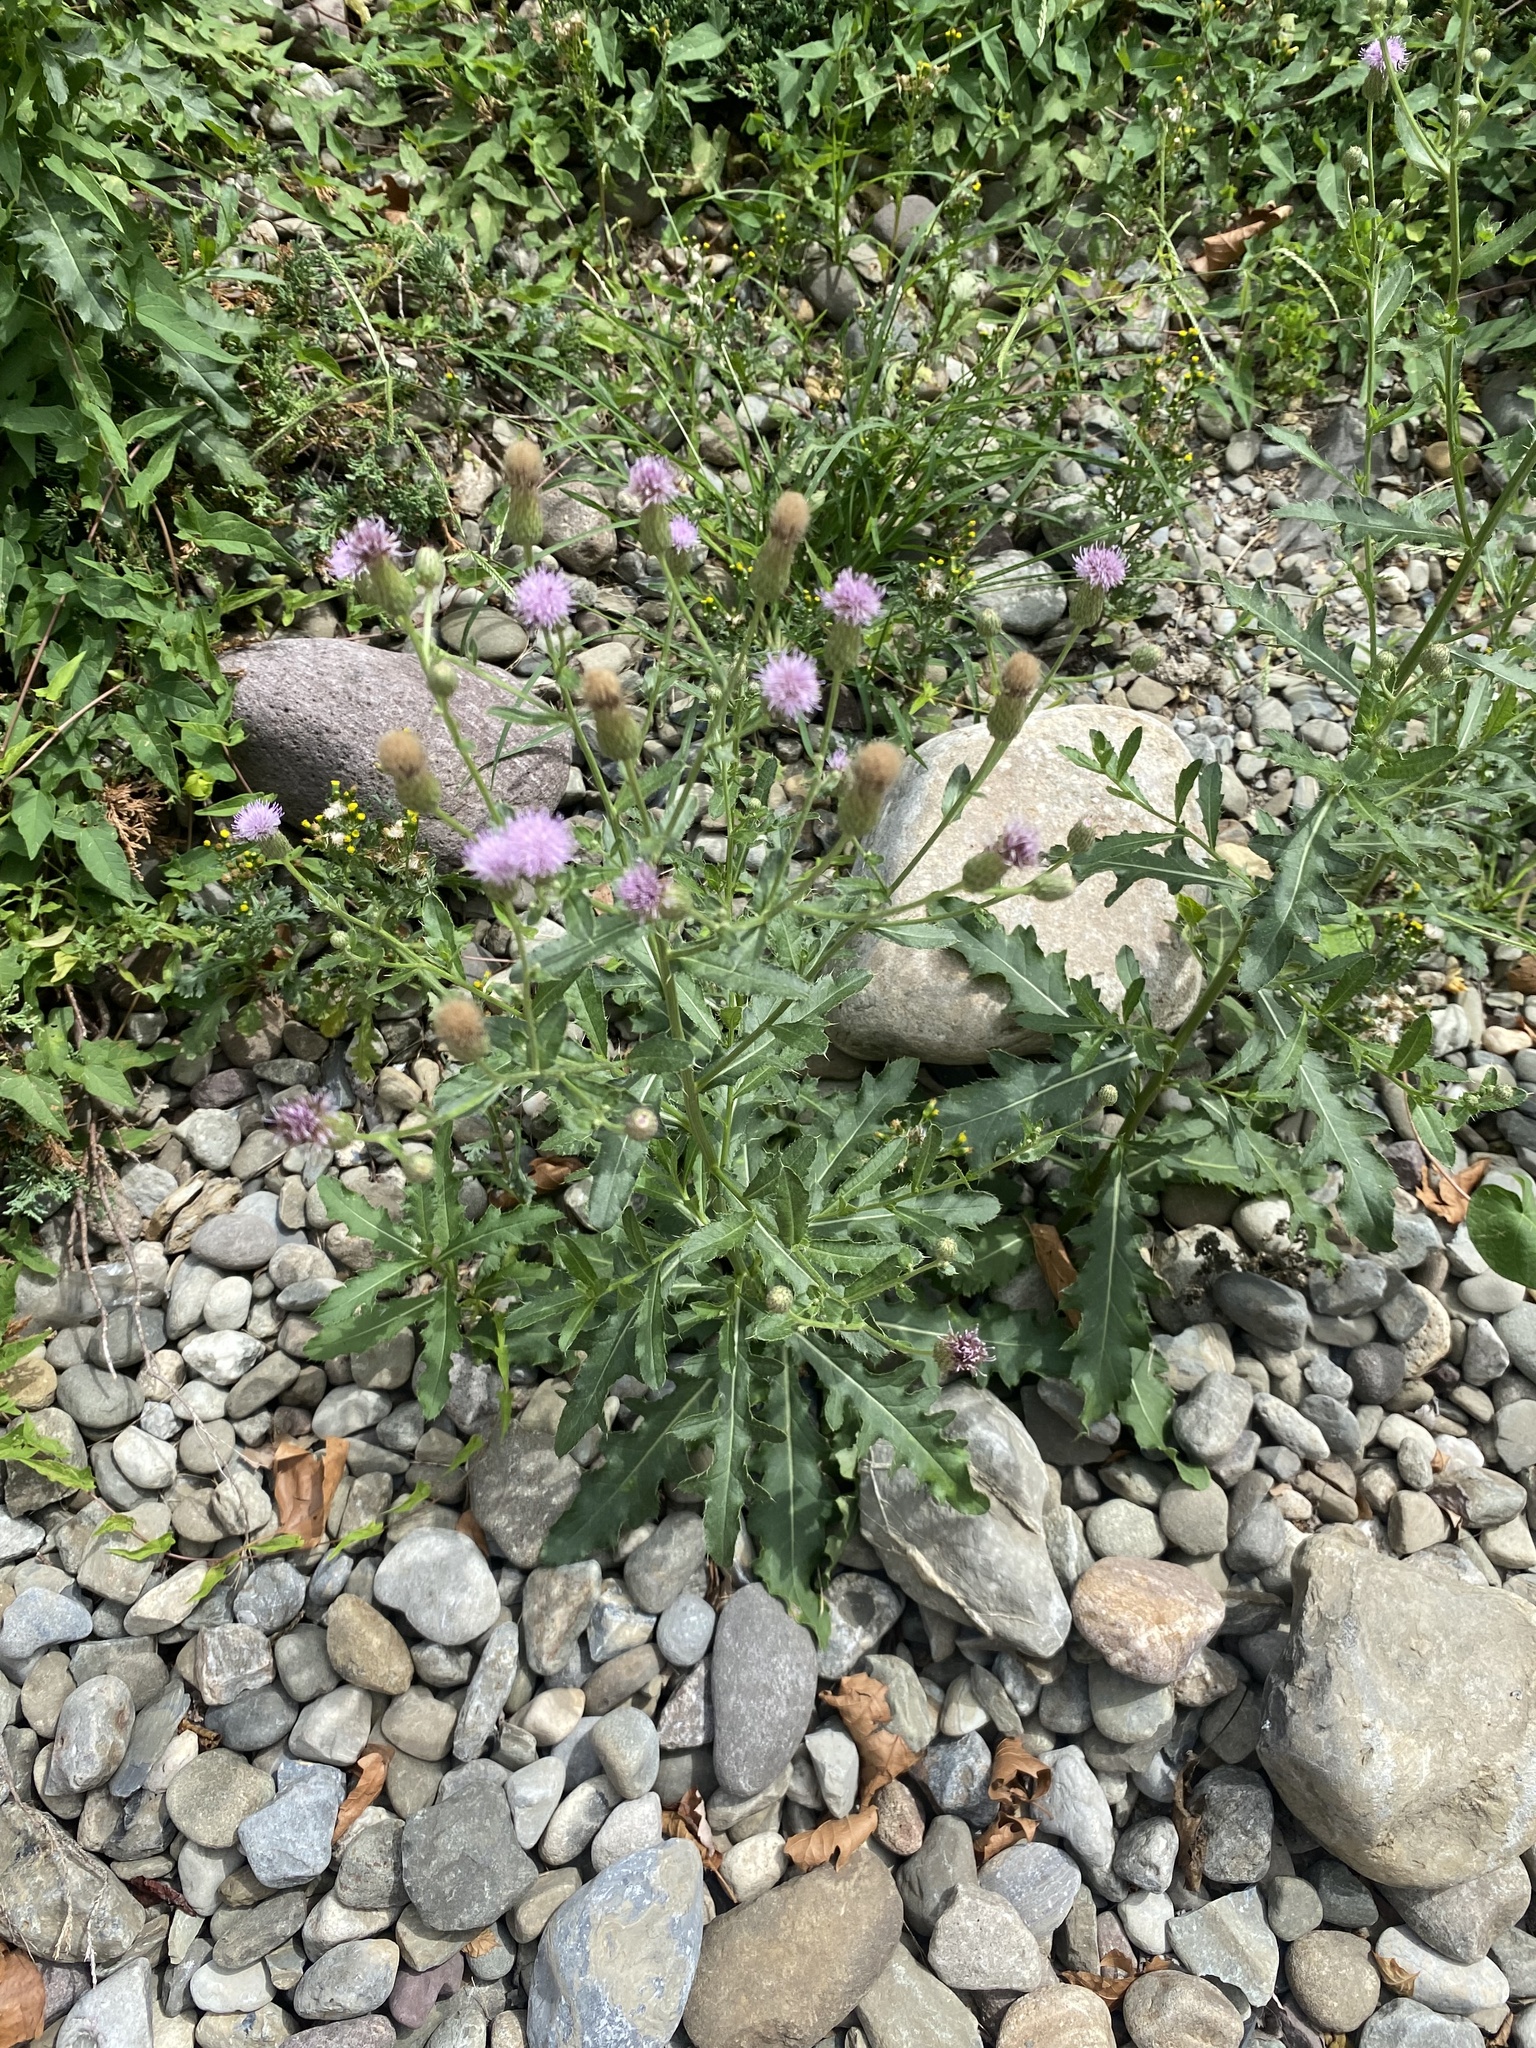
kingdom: Plantae
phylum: Tracheophyta
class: Magnoliopsida
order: Asterales
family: Asteraceae
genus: Cirsium
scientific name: Cirsium arvense
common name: Creeping thistle
